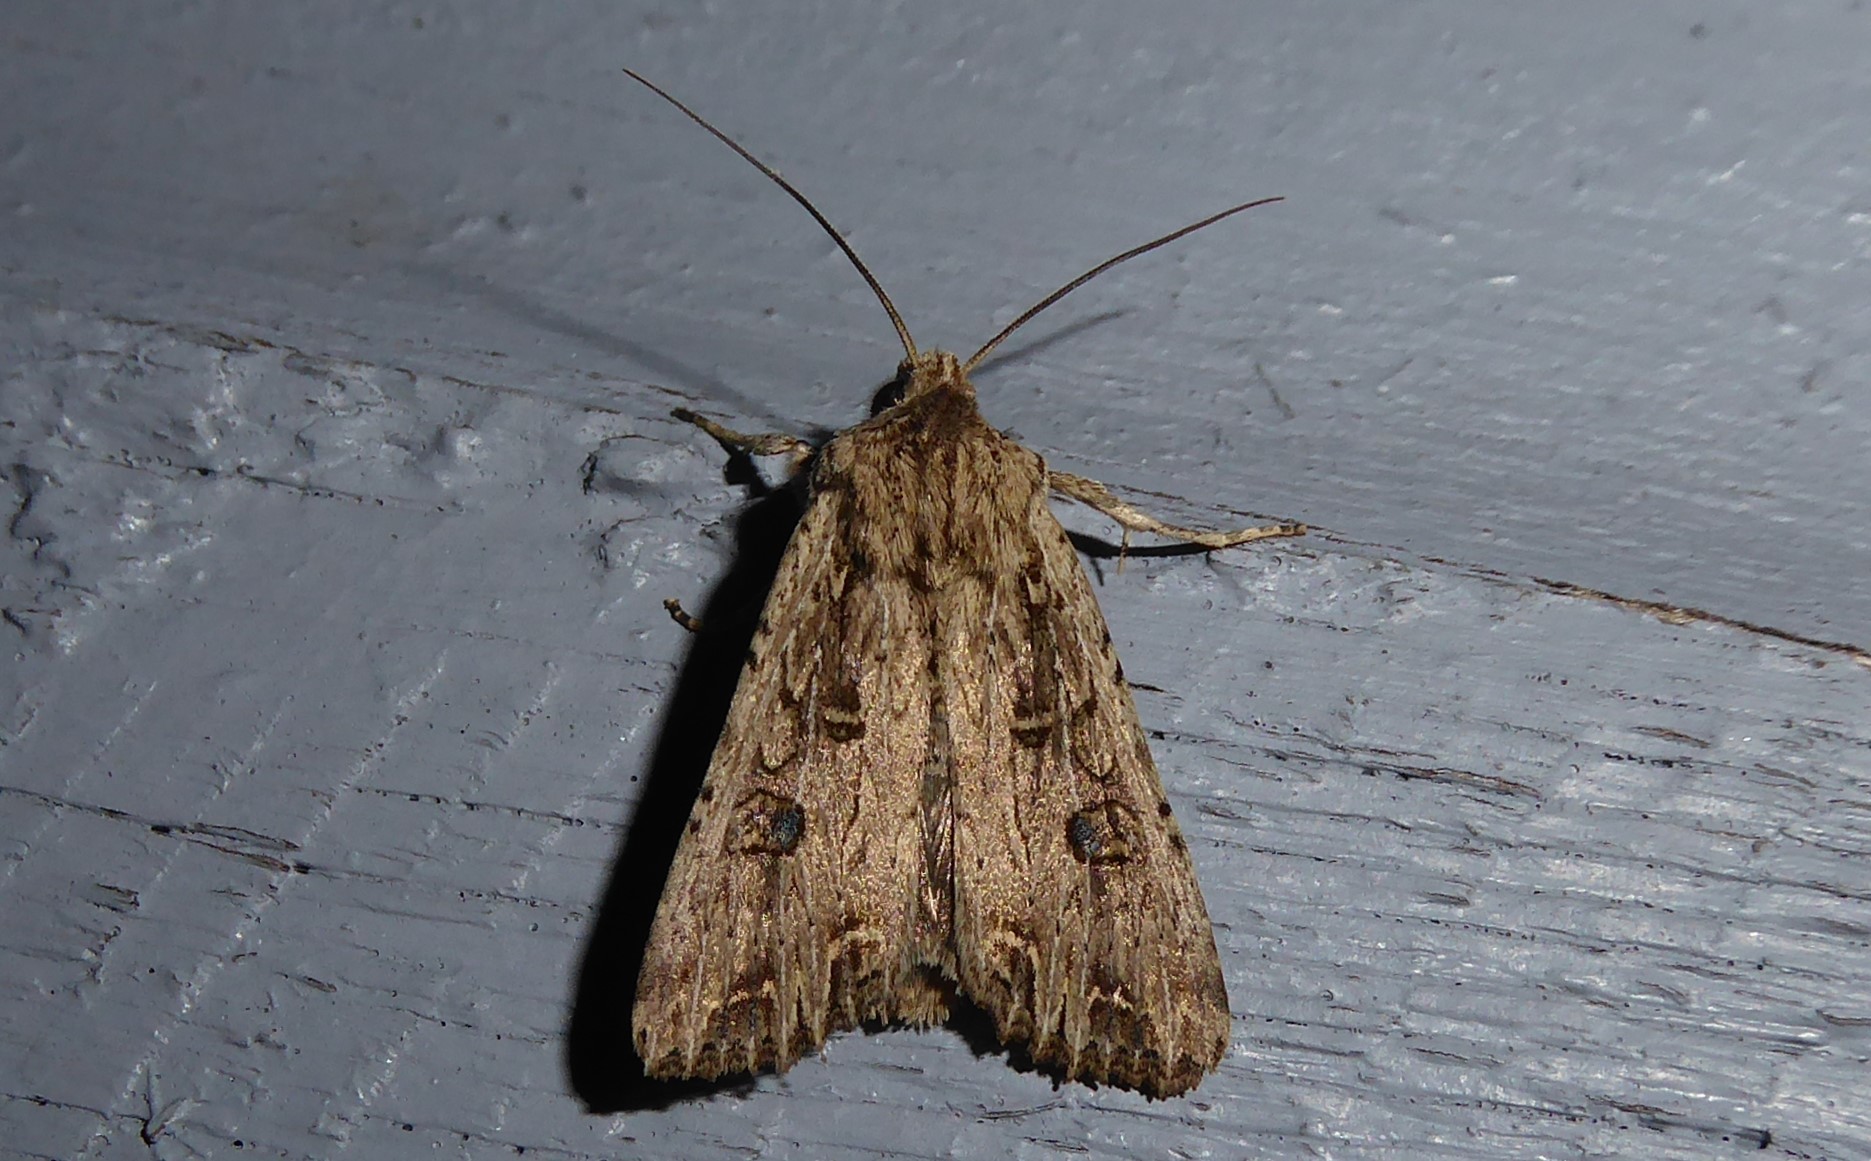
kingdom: Animalia
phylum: Arthropoda
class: Insecta
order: Lepidoptera
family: Noctuidae
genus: Ichneutica
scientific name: Ichneutica lignana
